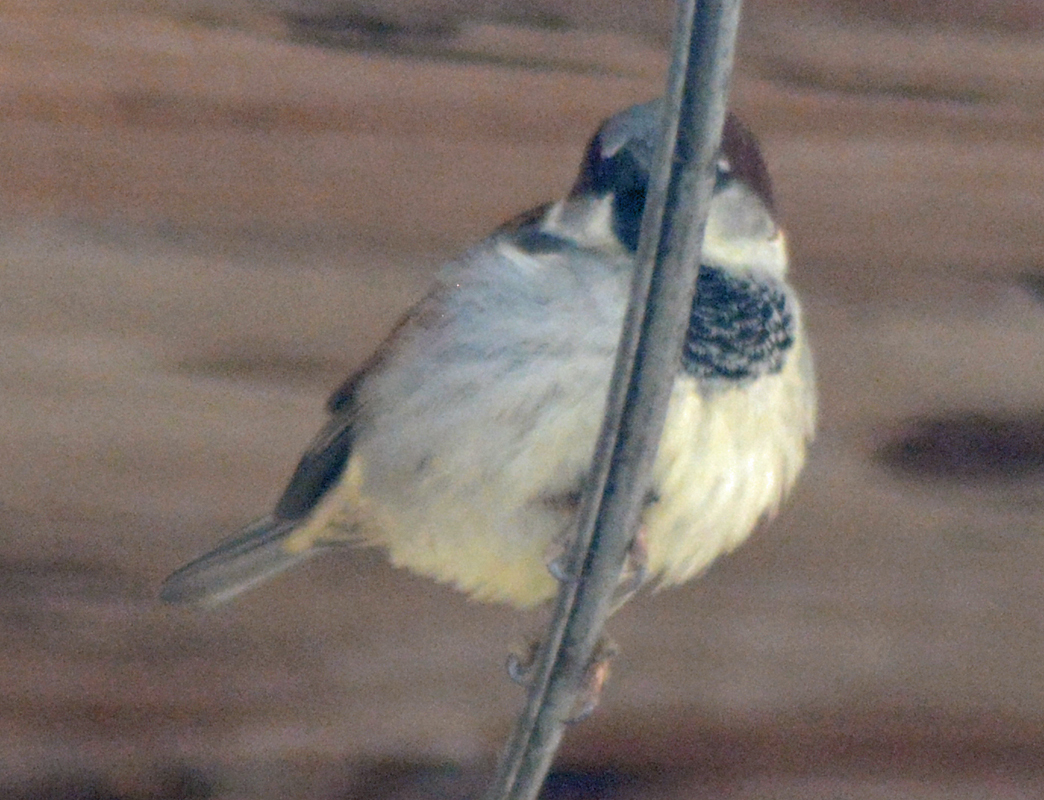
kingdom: Animalia
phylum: Chordata
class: Aves
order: Passeriformes
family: Passeridae
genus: Passer
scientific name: Passer domesticus
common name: House sparrow
